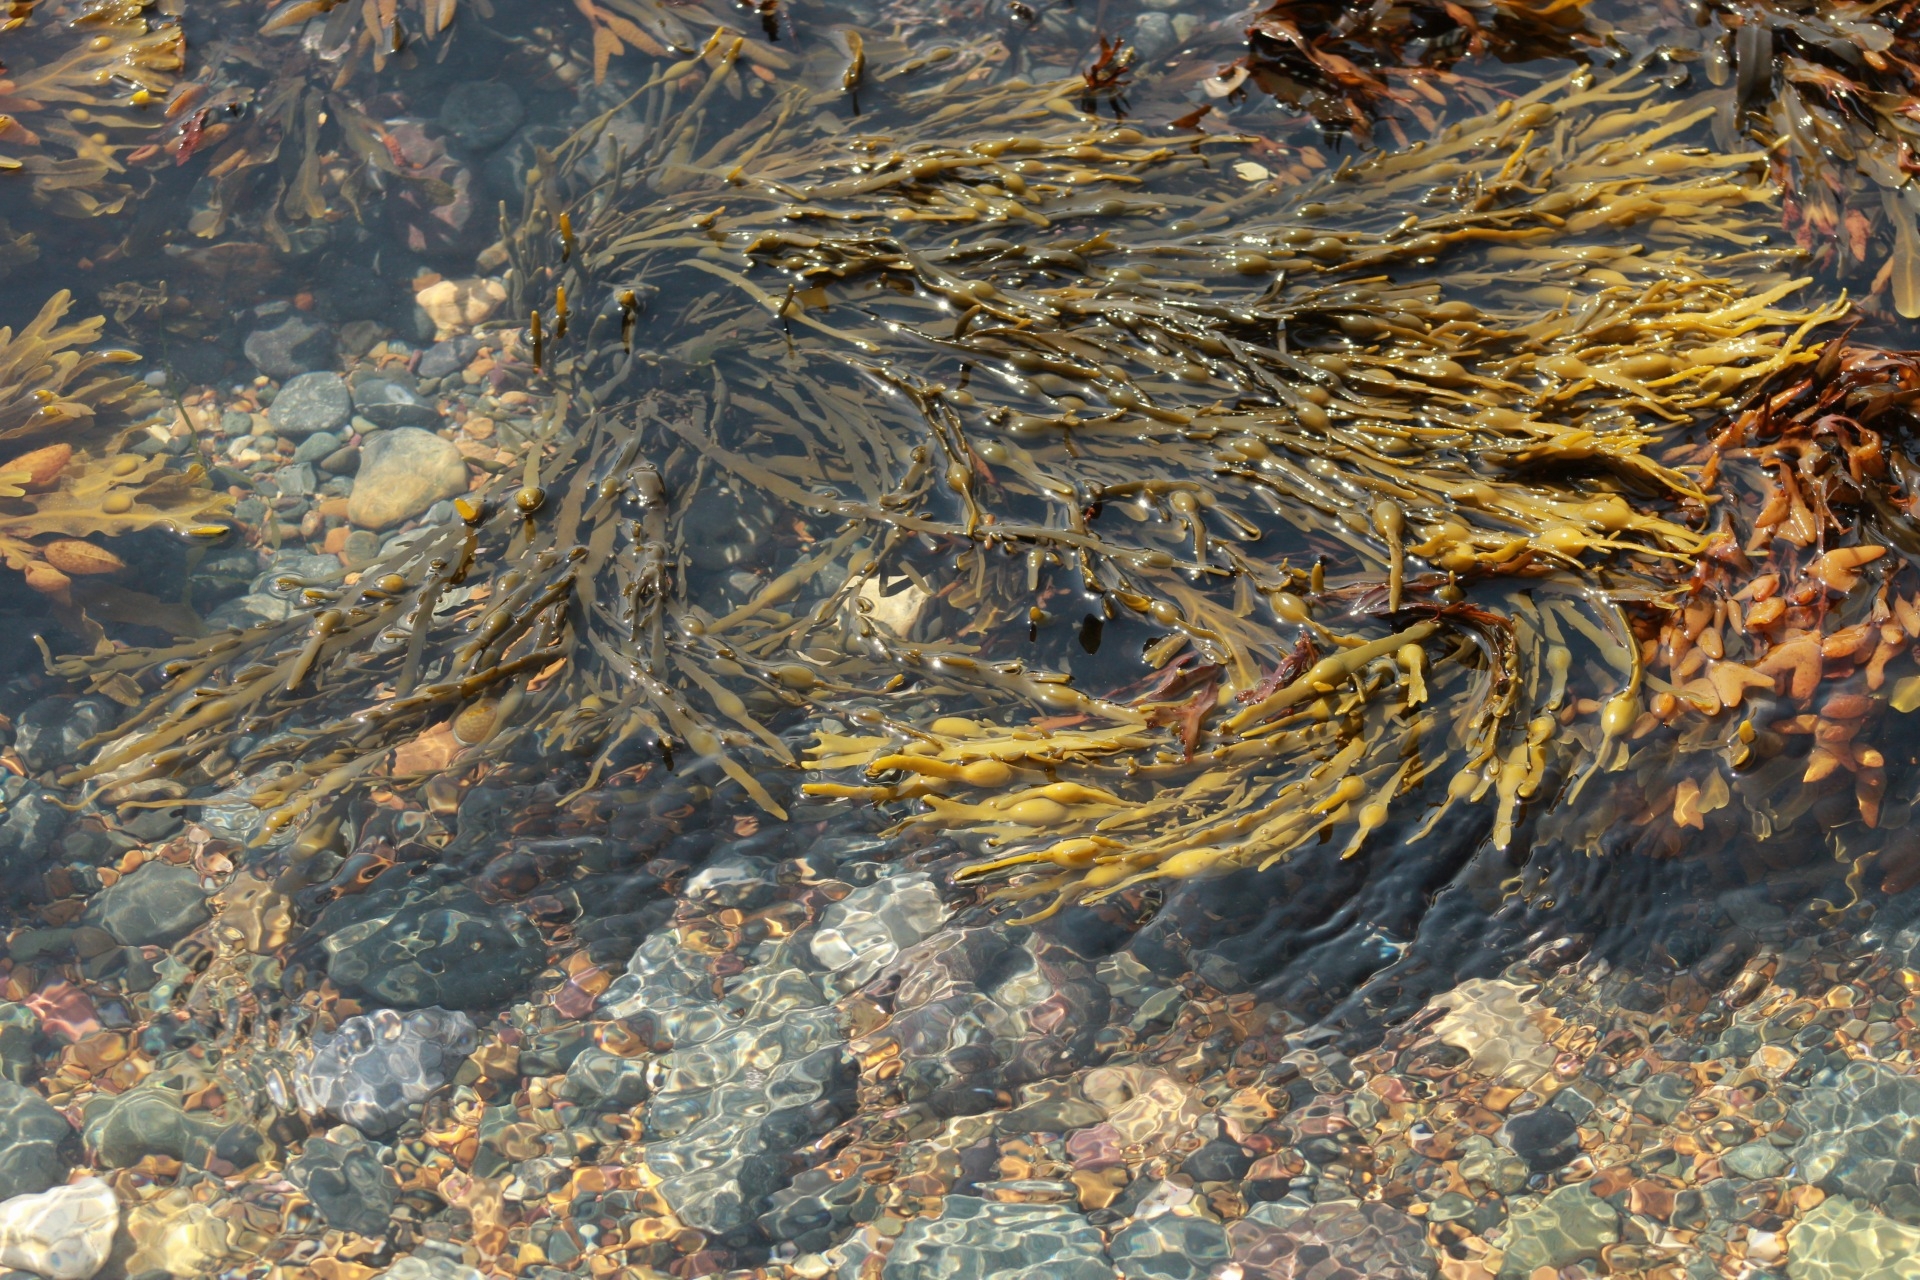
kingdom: Chromista
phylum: Ochrophyta
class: Phaeophyceae
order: Fucales
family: Fucaceae
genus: Ascophyllum
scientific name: Ascophyllum nodosum
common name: Knotted wrack
